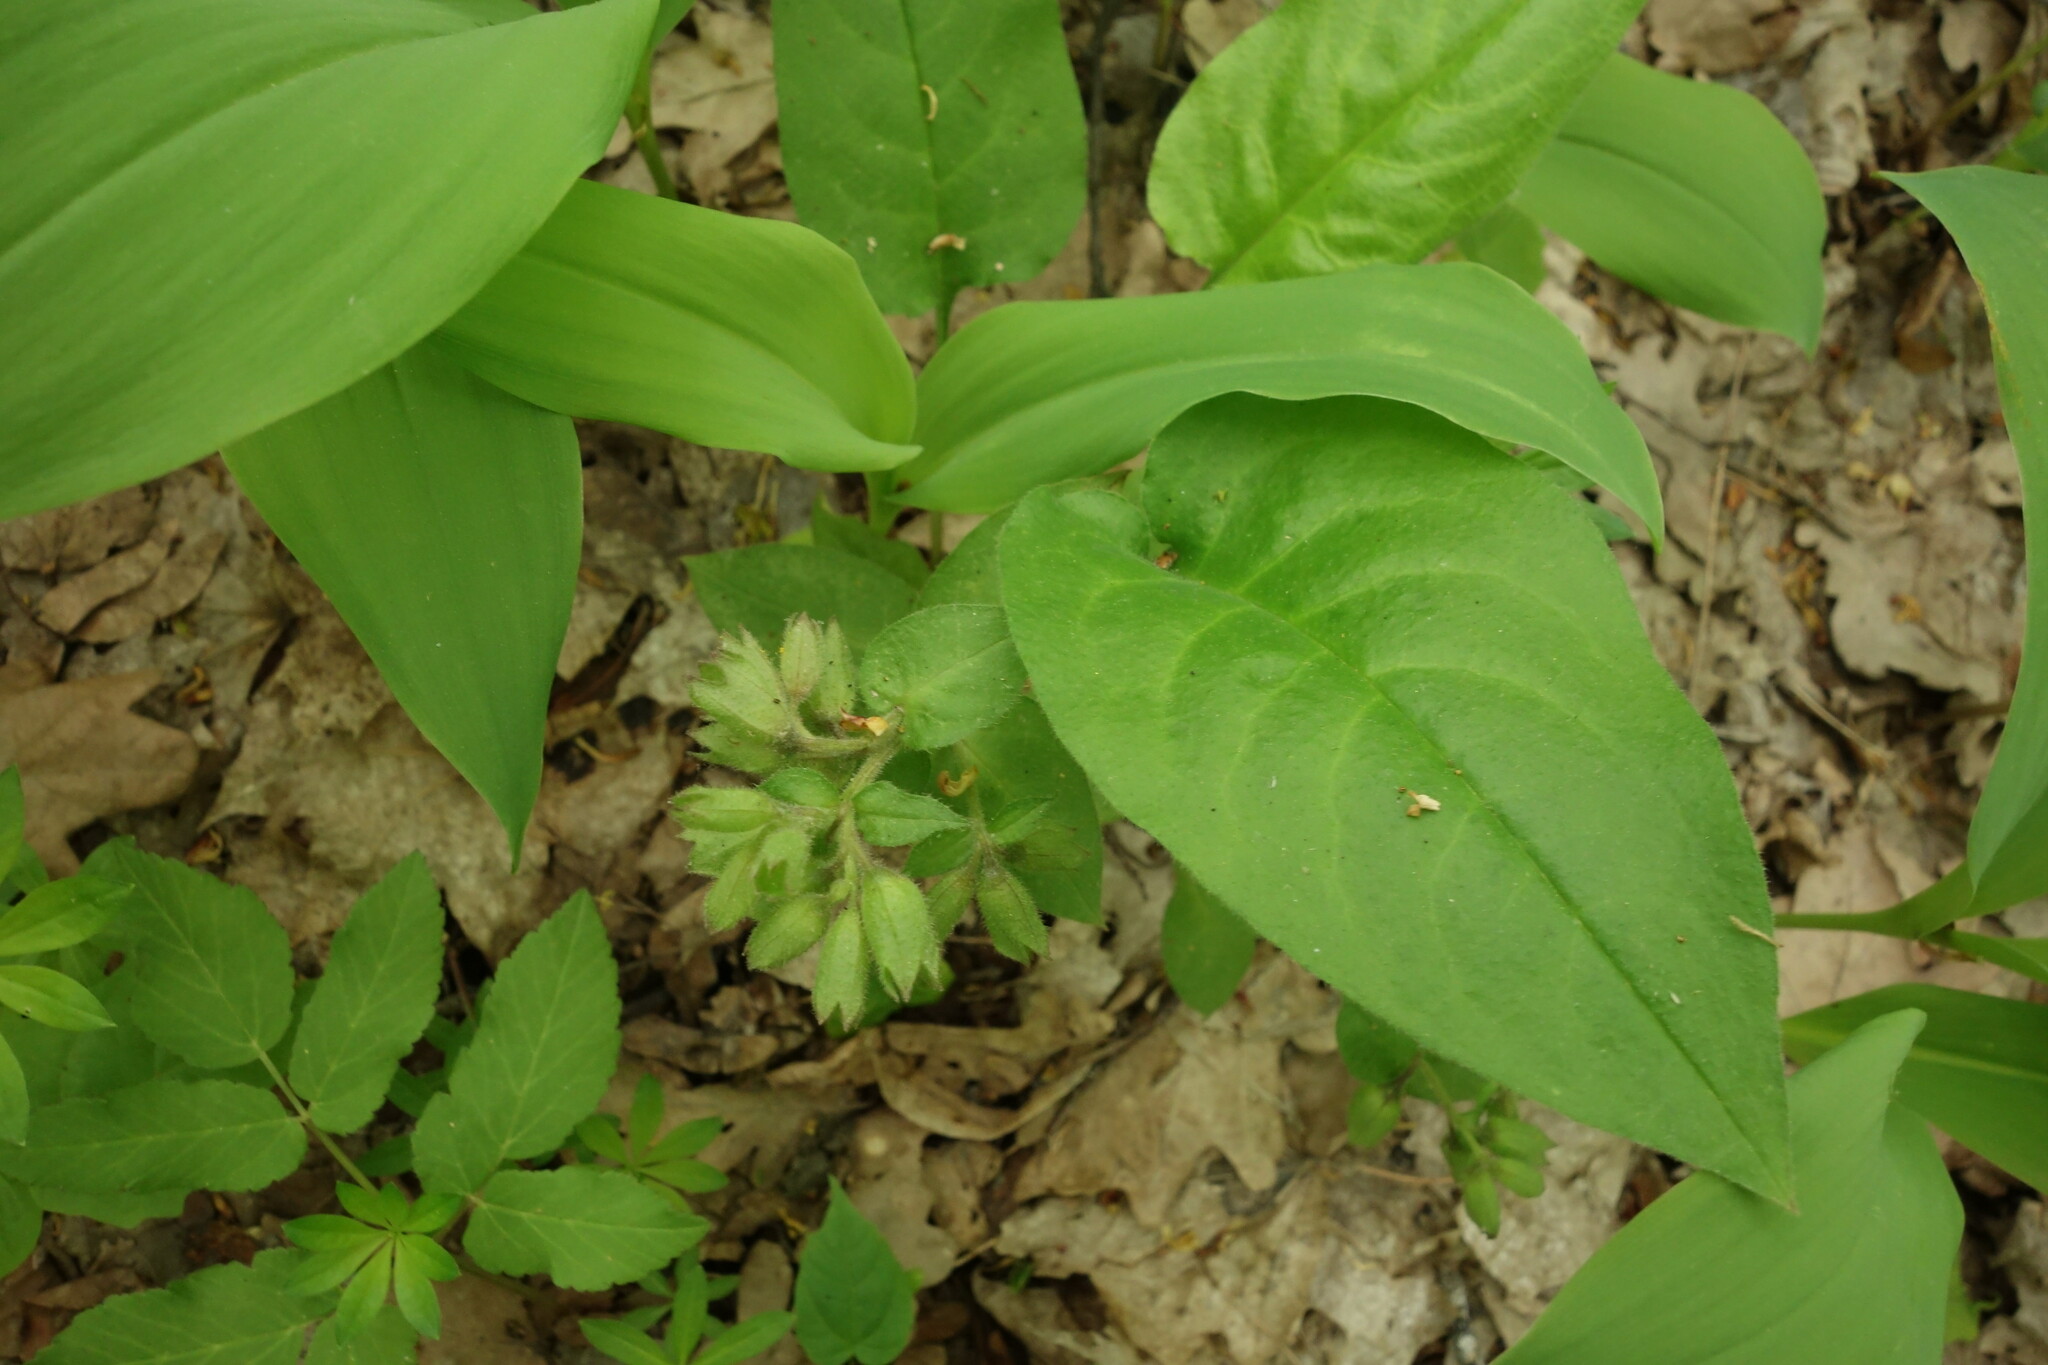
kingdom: Plantae
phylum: Tracheophyta
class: Magnoliopsida
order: Boraginales
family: Boraginaceae
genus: Pulmonaria
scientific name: Pulmonaria obscura
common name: Suffolk lungwort
